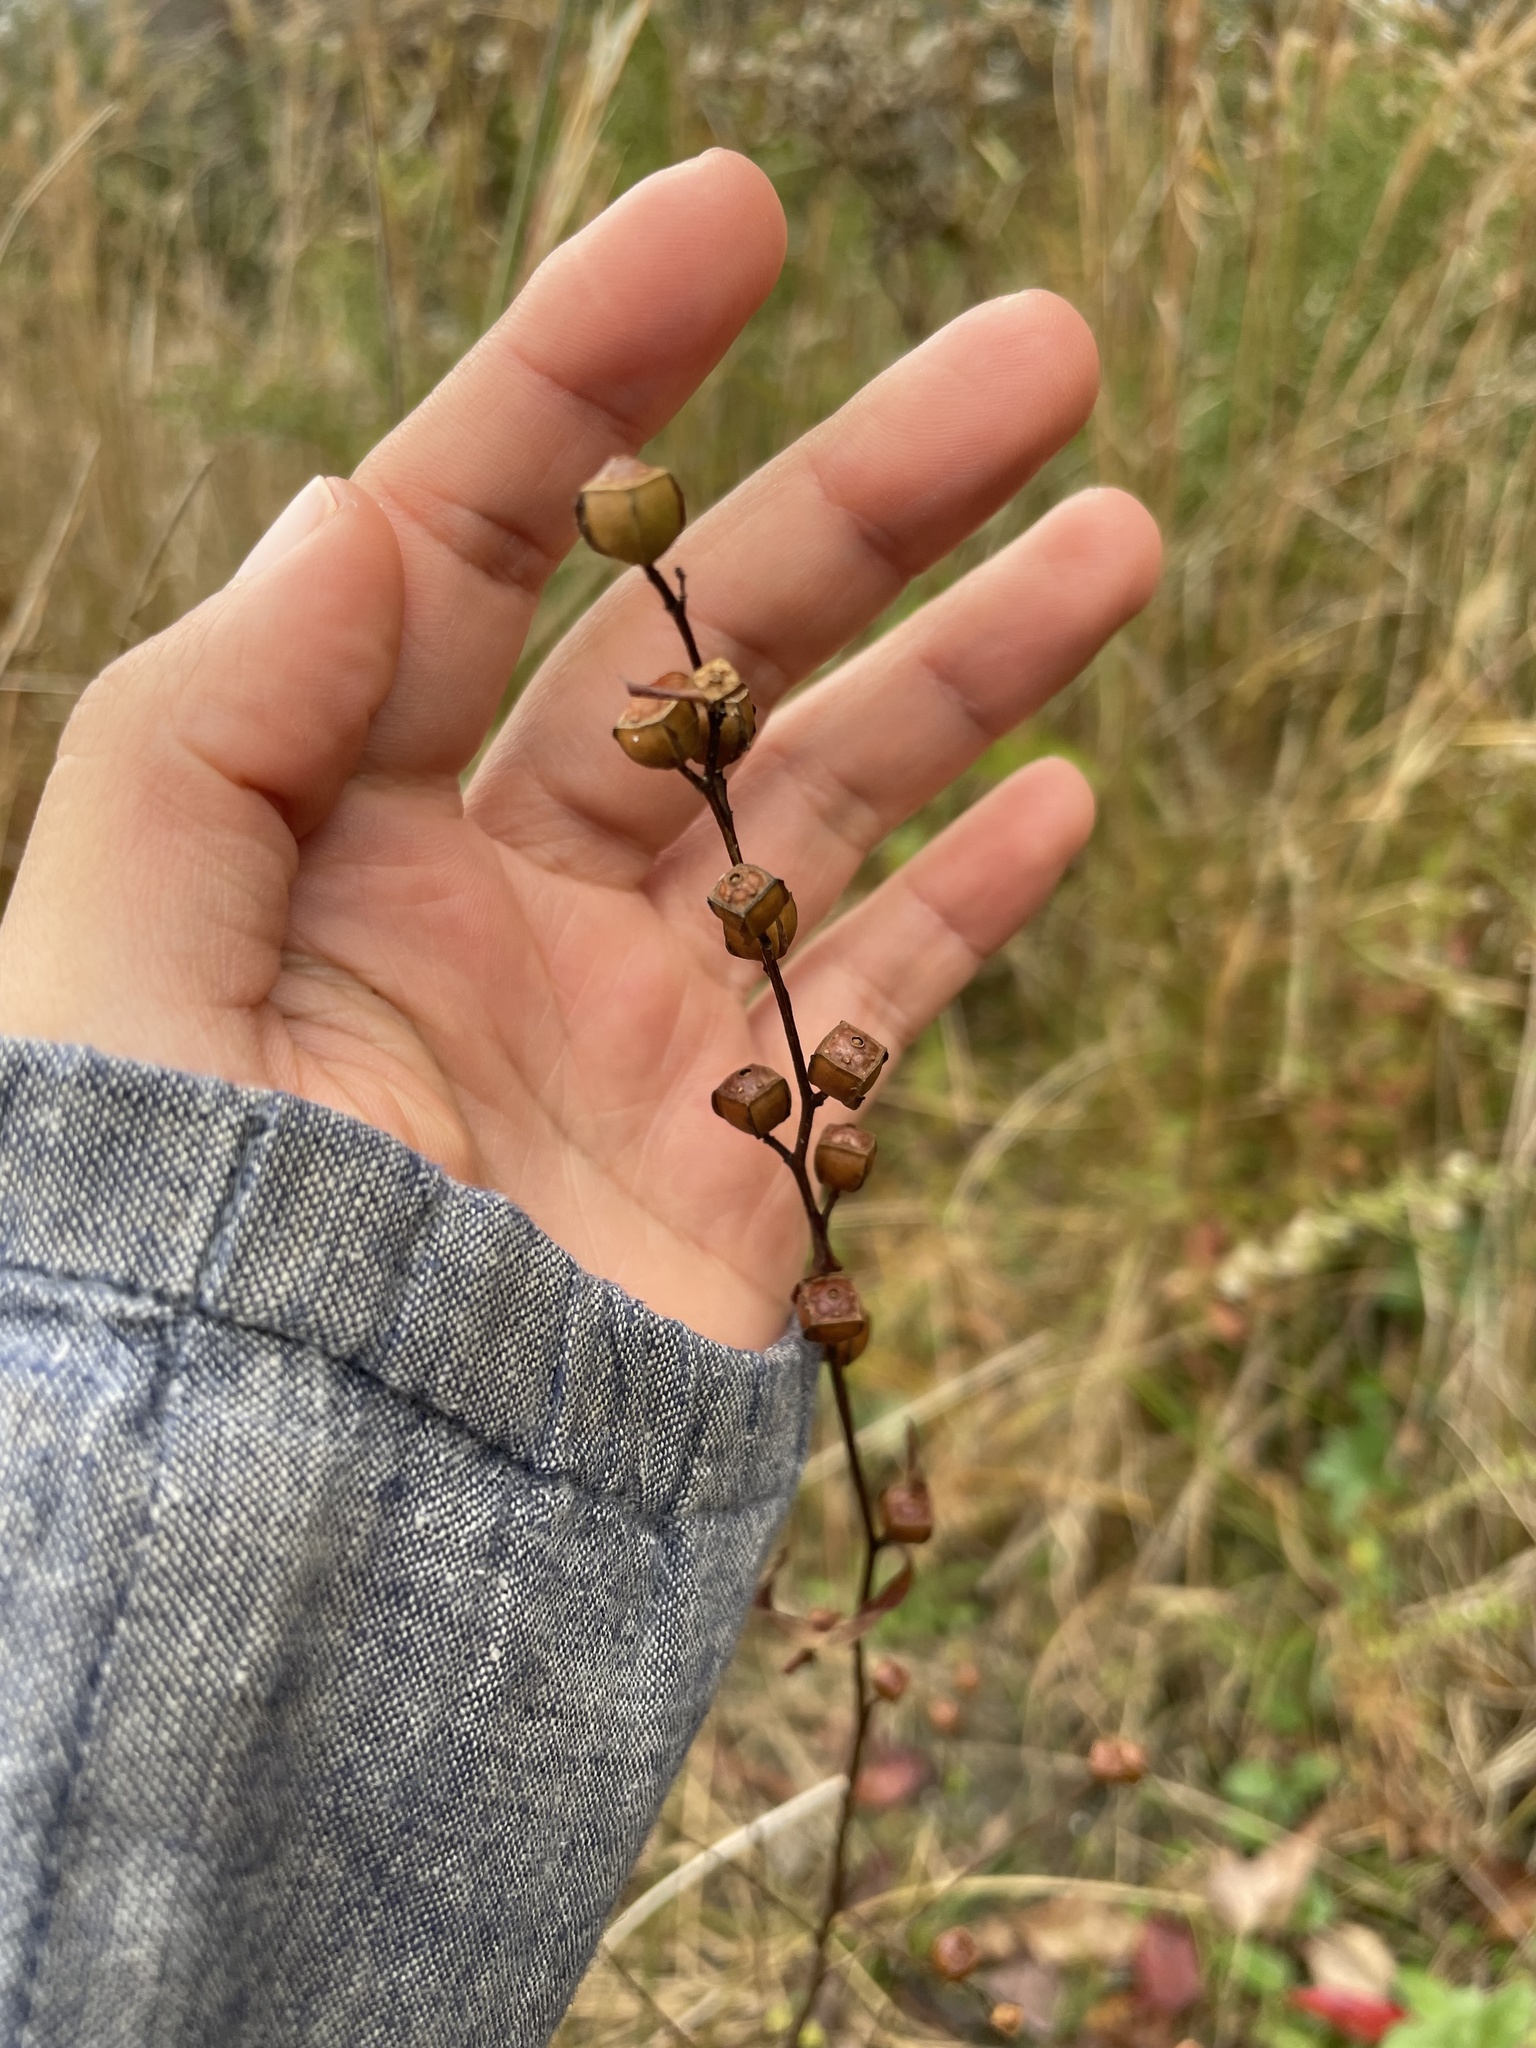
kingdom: Plantae
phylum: Tracheophyta
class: Magnoliopsida
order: Myrtales
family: Onagraceae
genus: Ludwigia
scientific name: Ludwigia alternifolia
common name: Rattlebox
